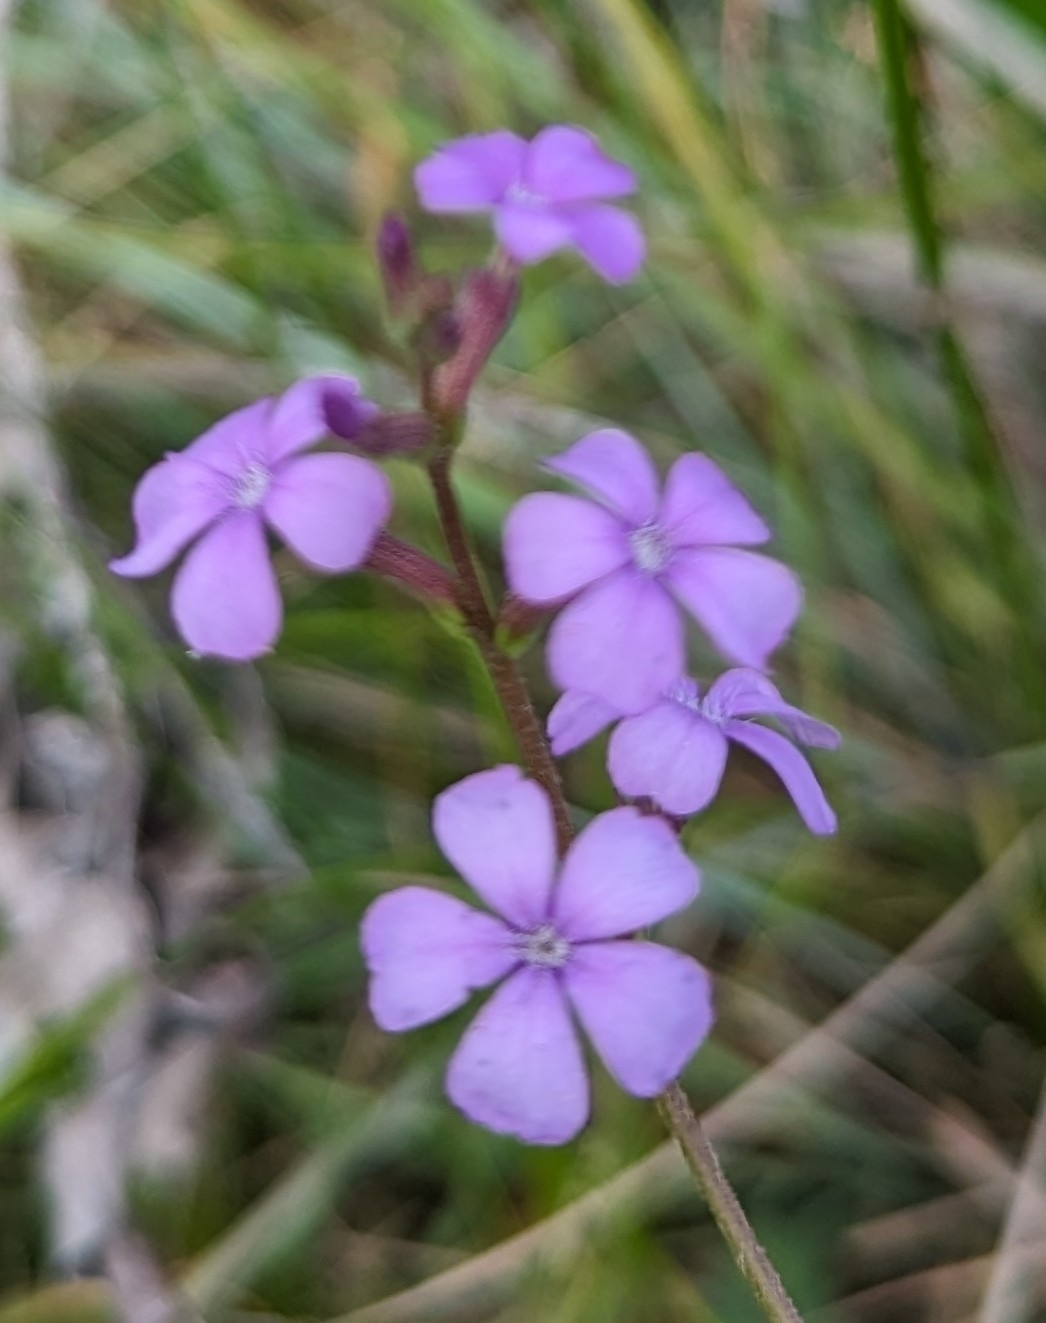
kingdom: Plantae
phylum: Tracheophyta
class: Magnoliopsida
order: Lamiales
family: Orobanchaceae
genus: Buchnera
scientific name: Buchnera floridana
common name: Florida bluehearts
